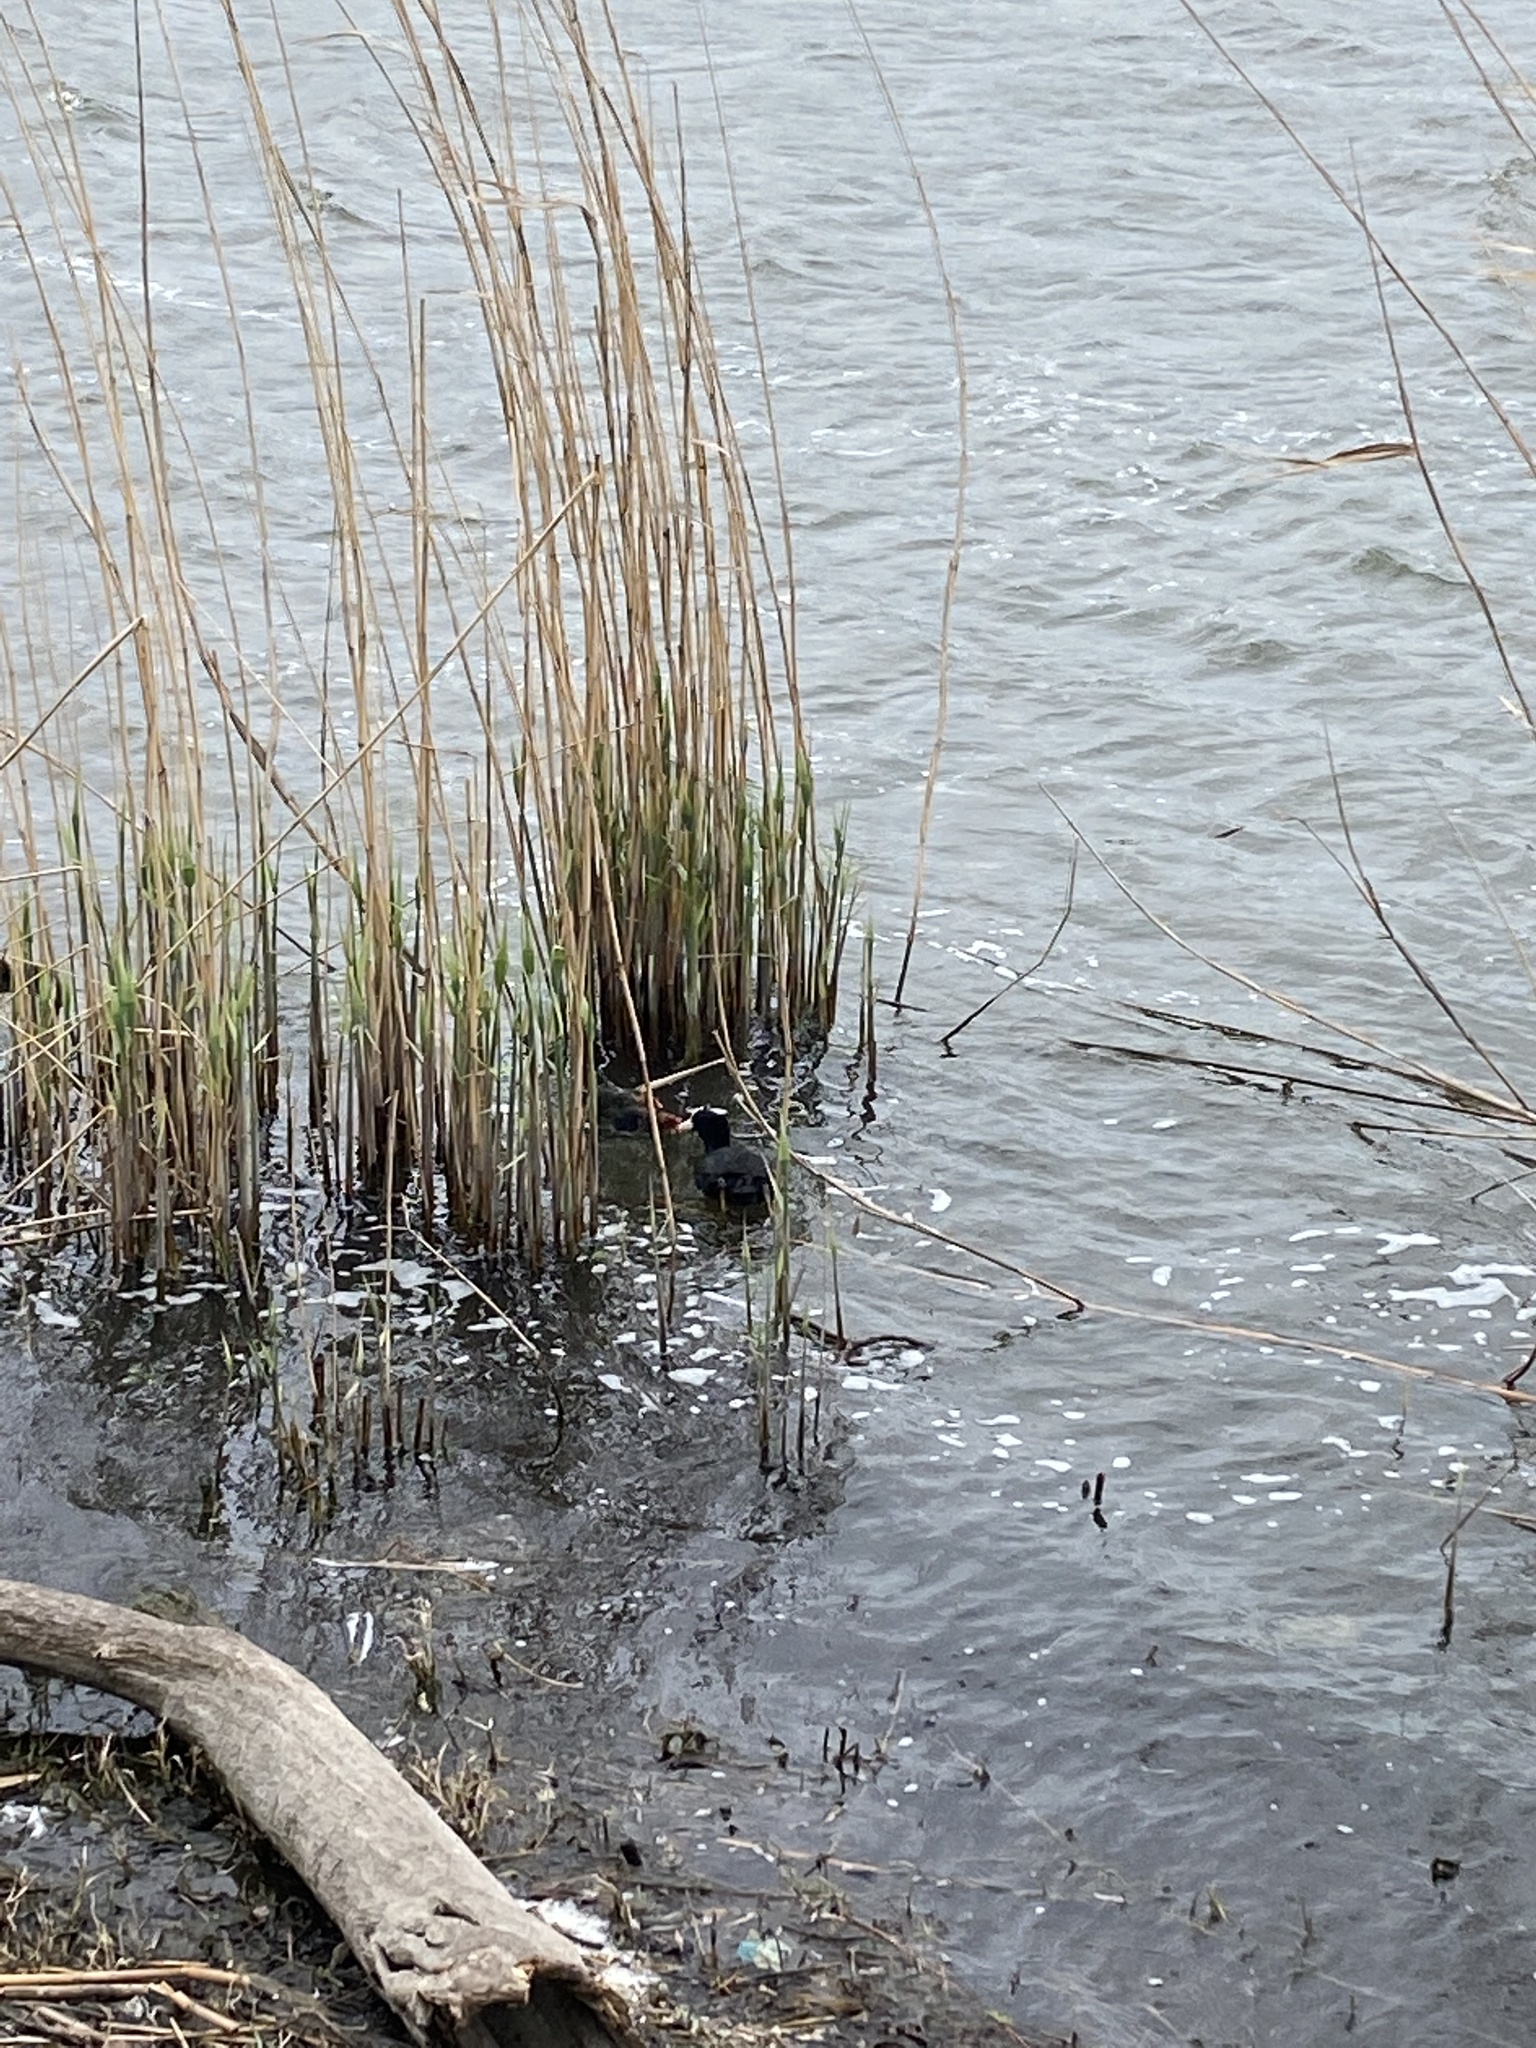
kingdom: Animalia
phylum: Chordata
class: Aves
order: Gruiformes
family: Rallidae
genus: Fulica
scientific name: Fulica atra
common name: Eurasian coot
